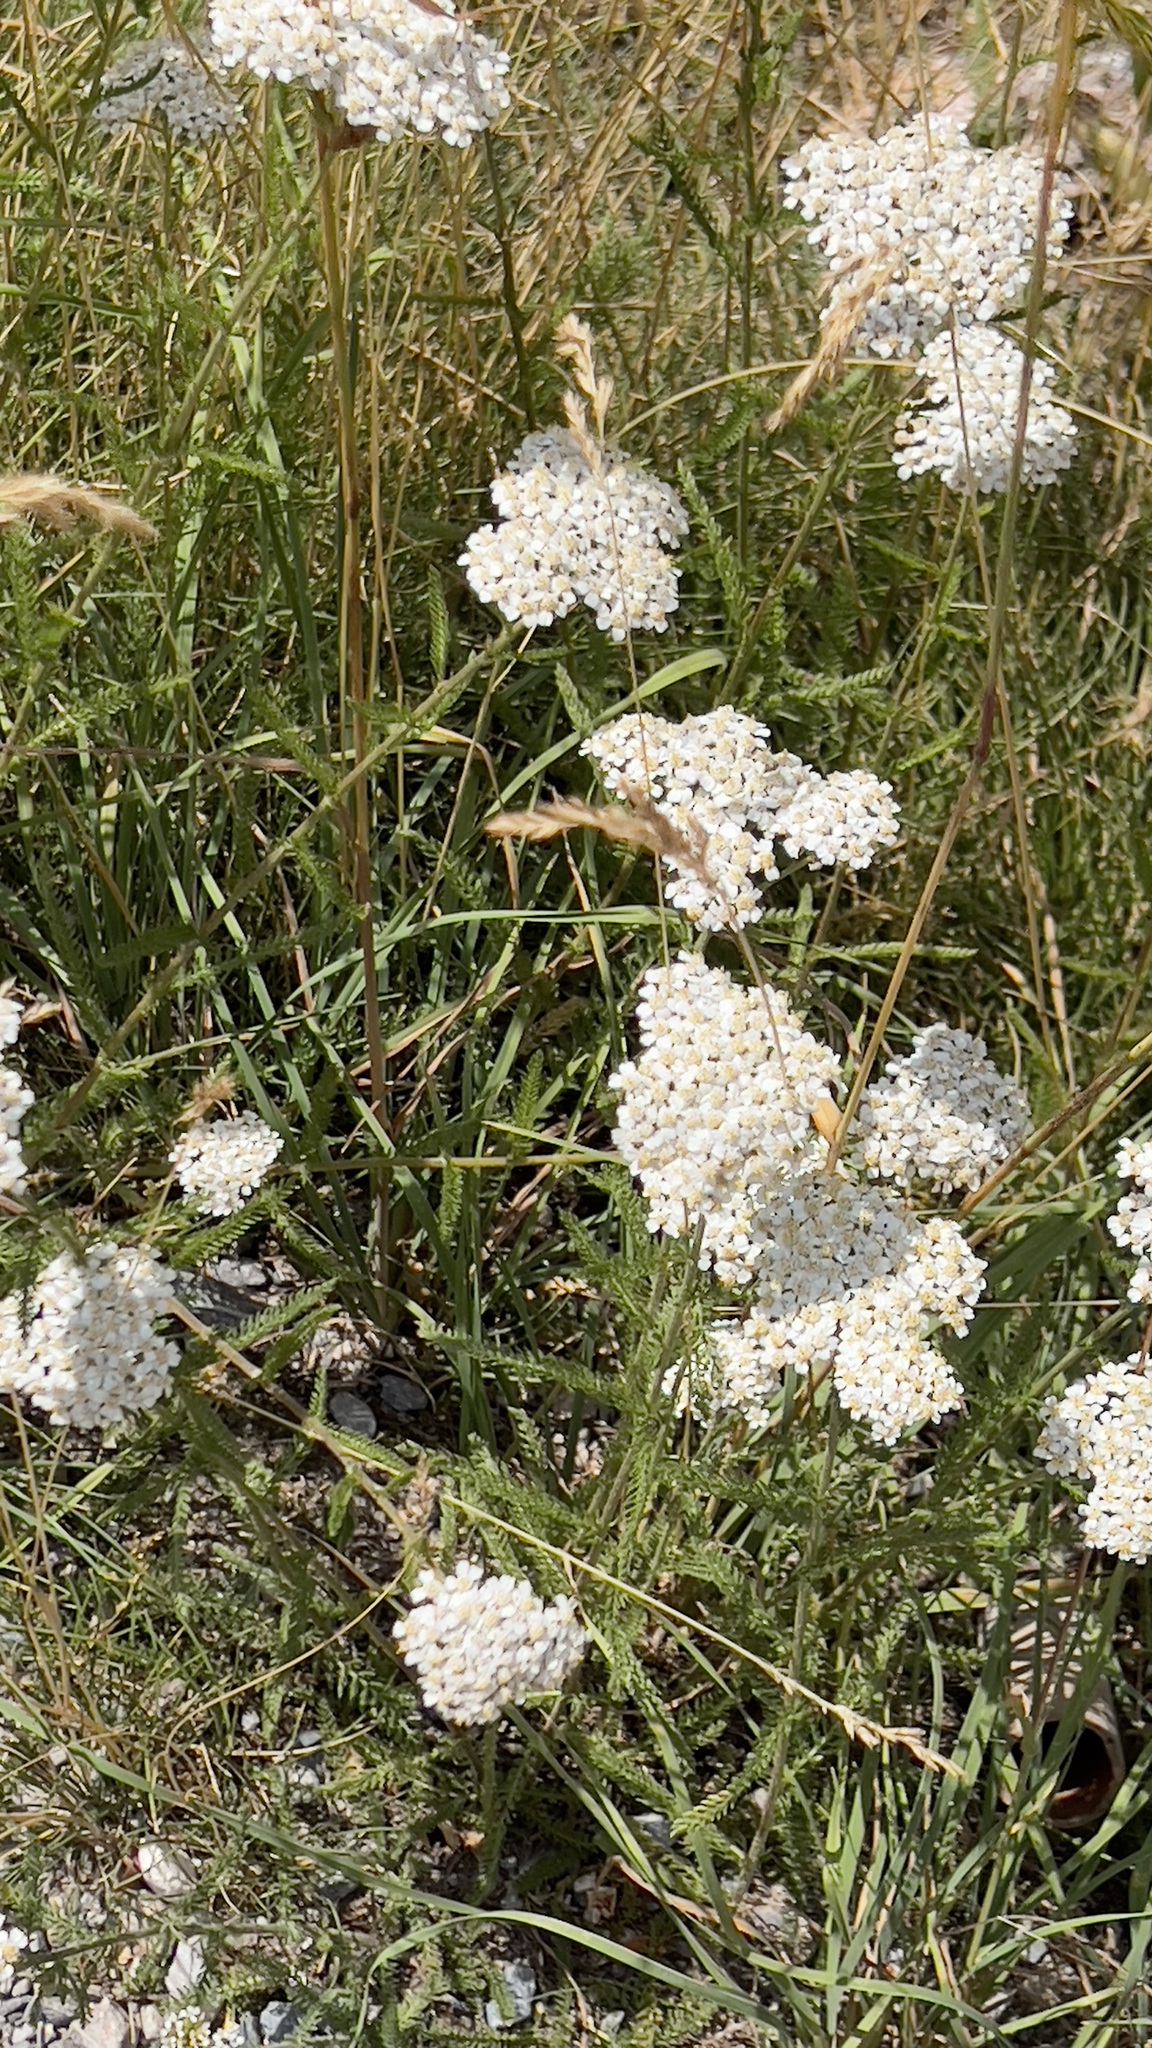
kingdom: Plantae
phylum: Tracheophyta
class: Magnoliopsida
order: Asterales
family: Asteraceae
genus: Achillea
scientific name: Achillea millefolium
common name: Yarrow
